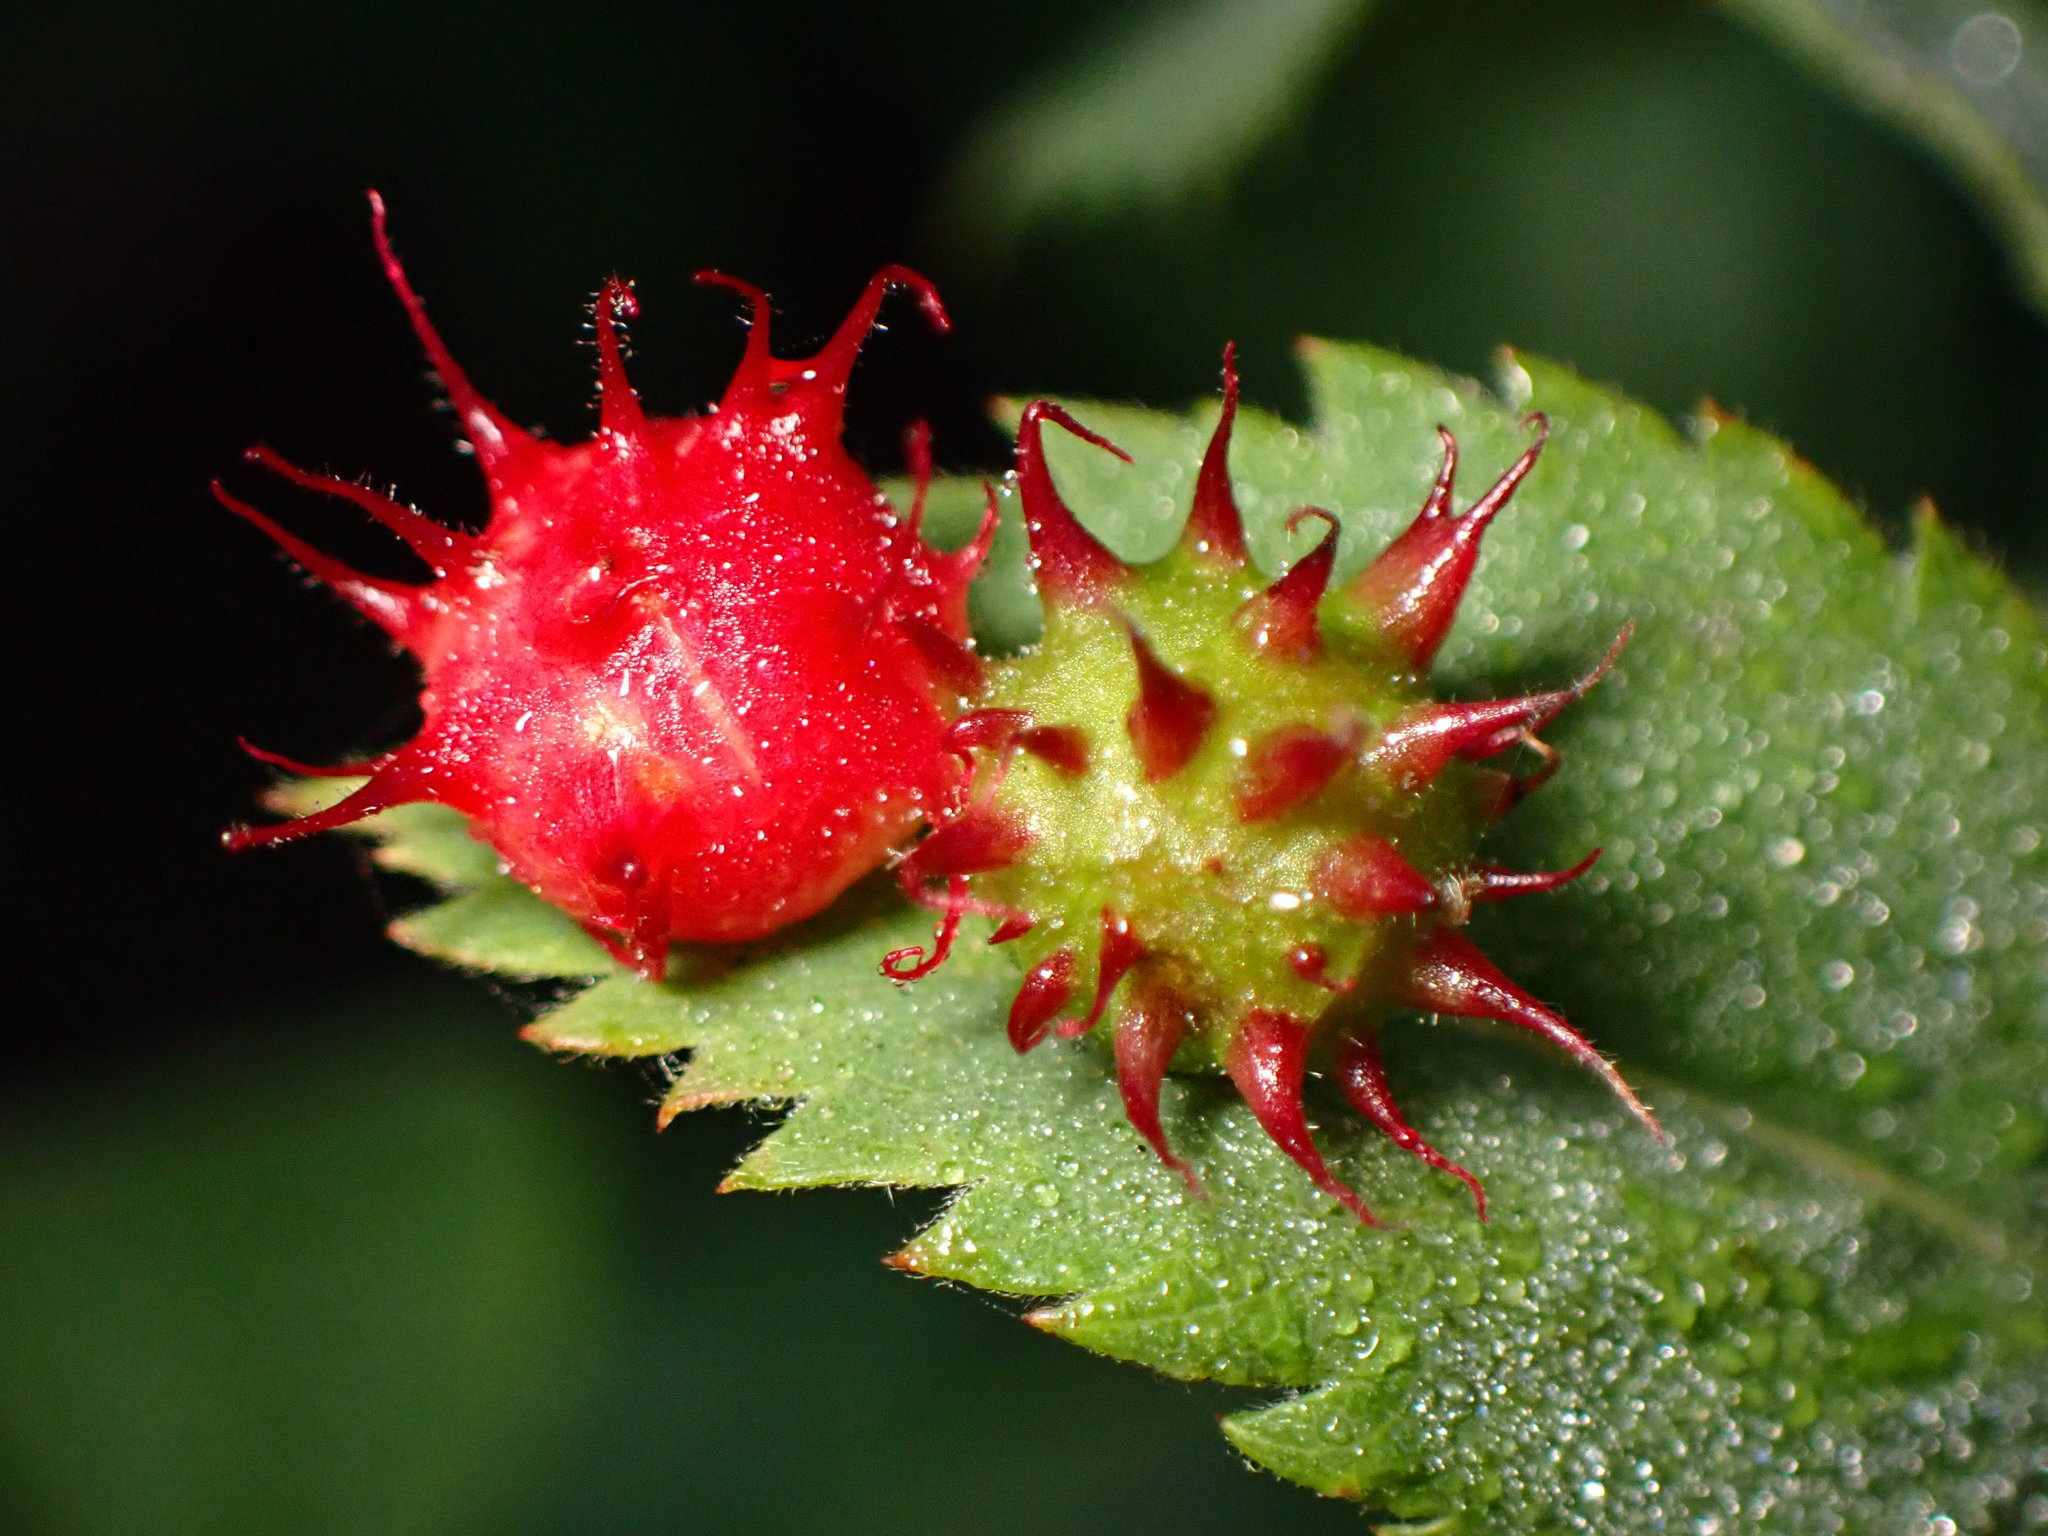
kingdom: Animalia
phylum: Arthropoda
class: Insecta
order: Hymenoptera
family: Cynipidae
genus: Diplolepis
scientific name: Diplolepis polita
